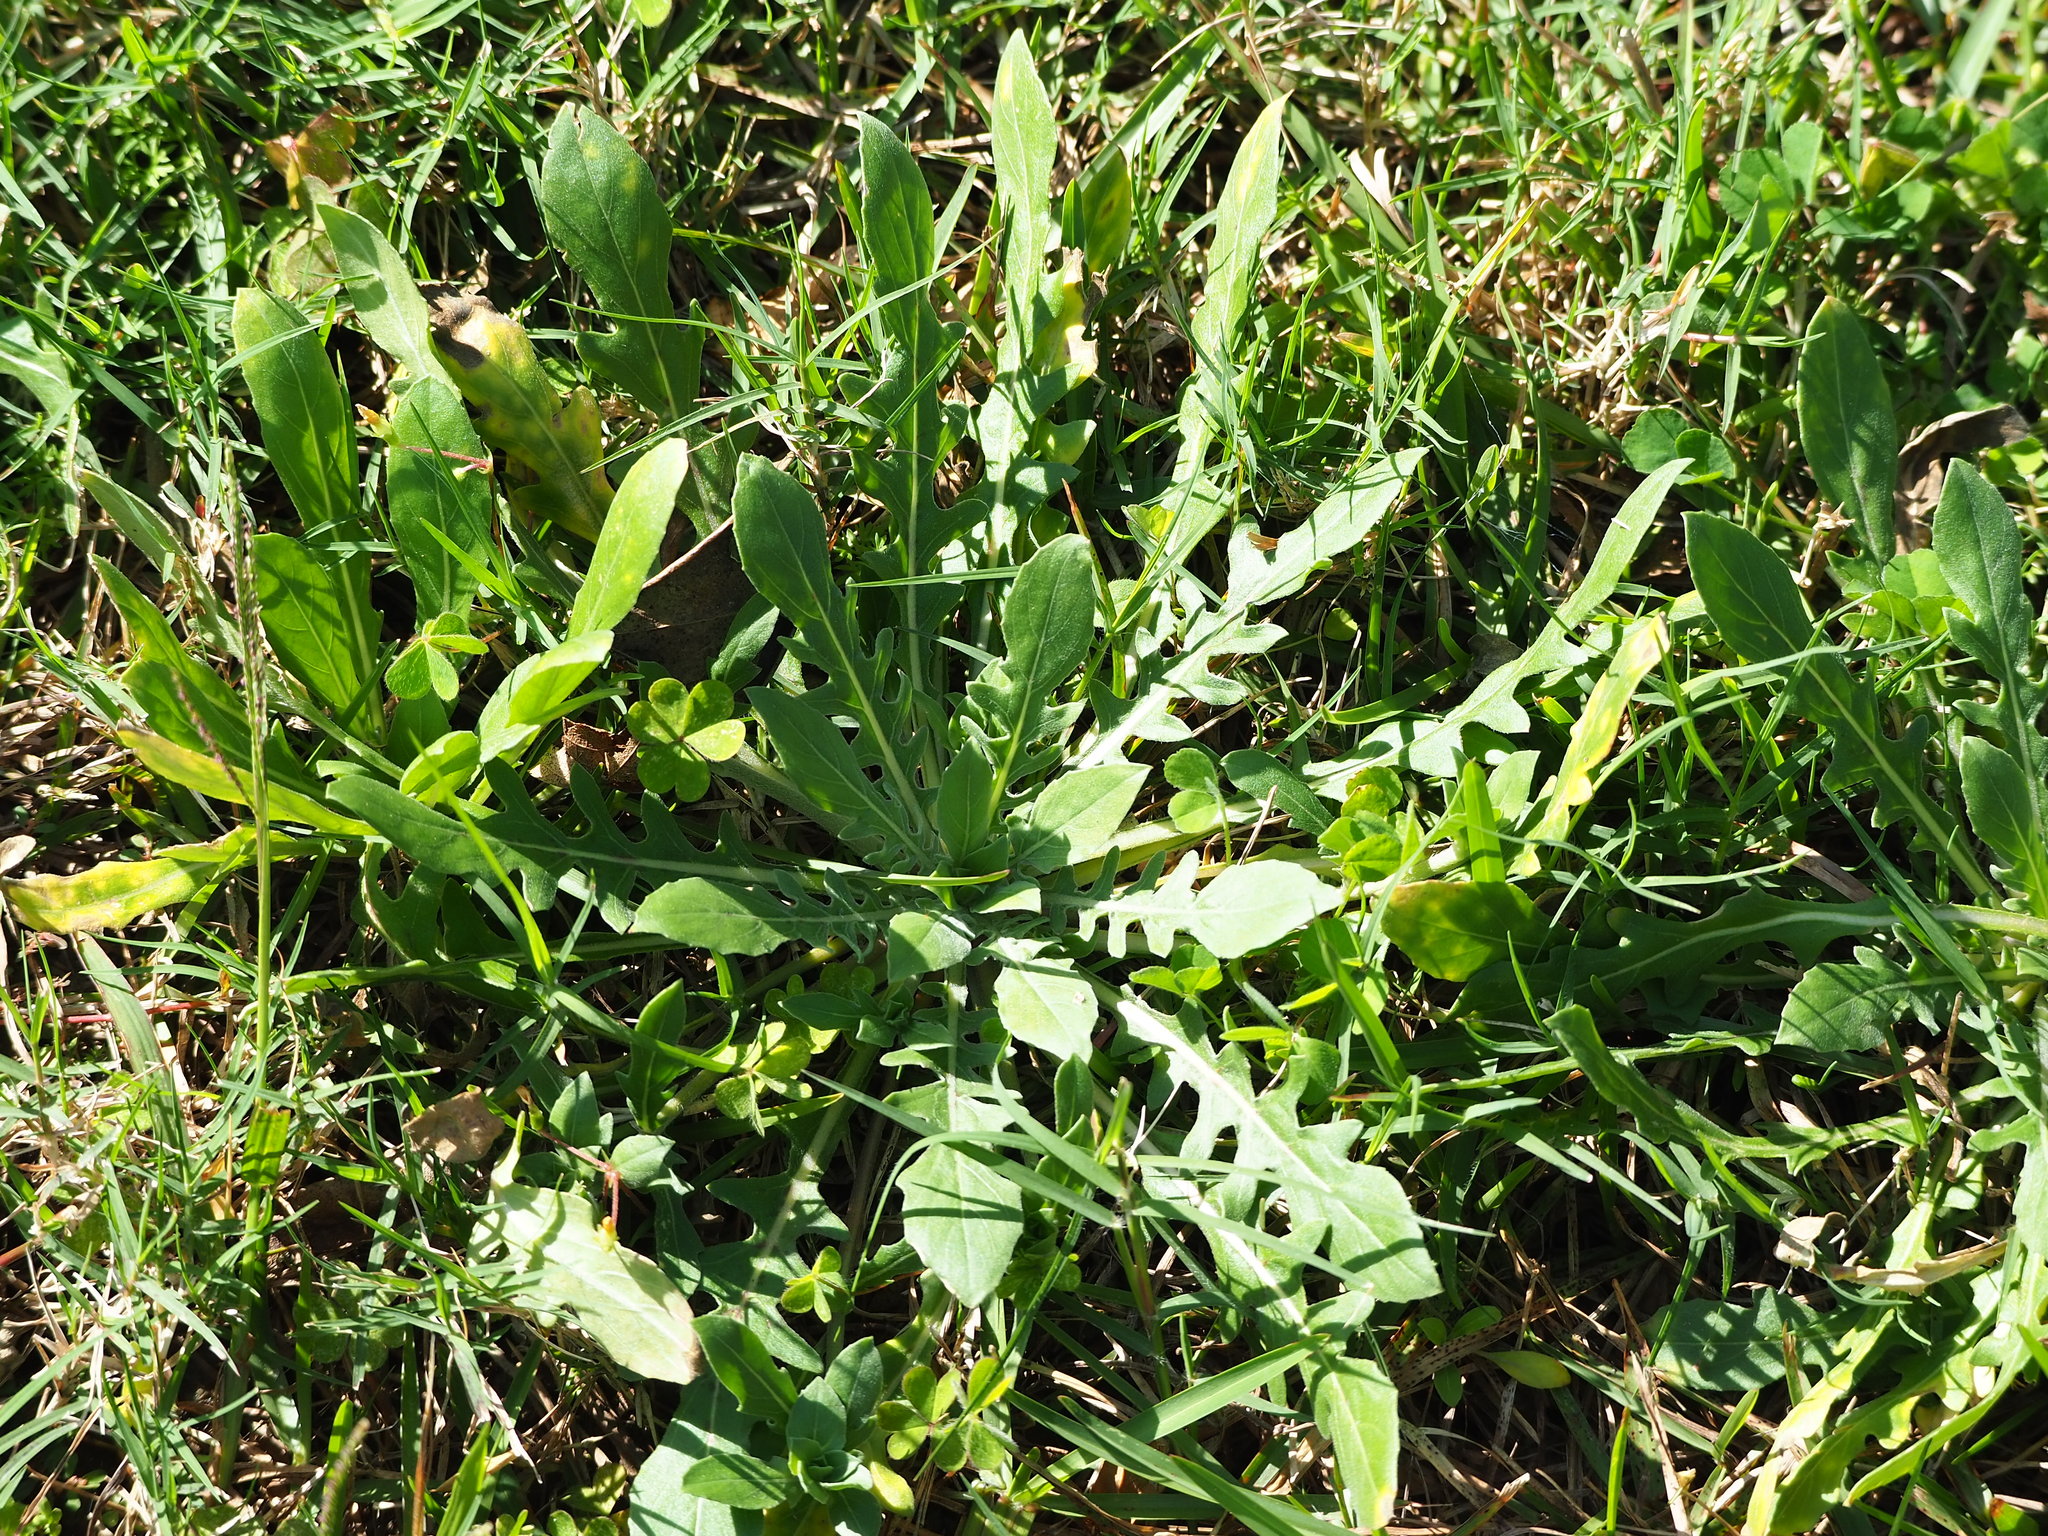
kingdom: Plantae
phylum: Tracheophyta
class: Magnoliopsida
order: Myrtales
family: Onagraceae
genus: Oenothera
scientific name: Oenothera laciniata
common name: Cut-leaved evening-primrose
